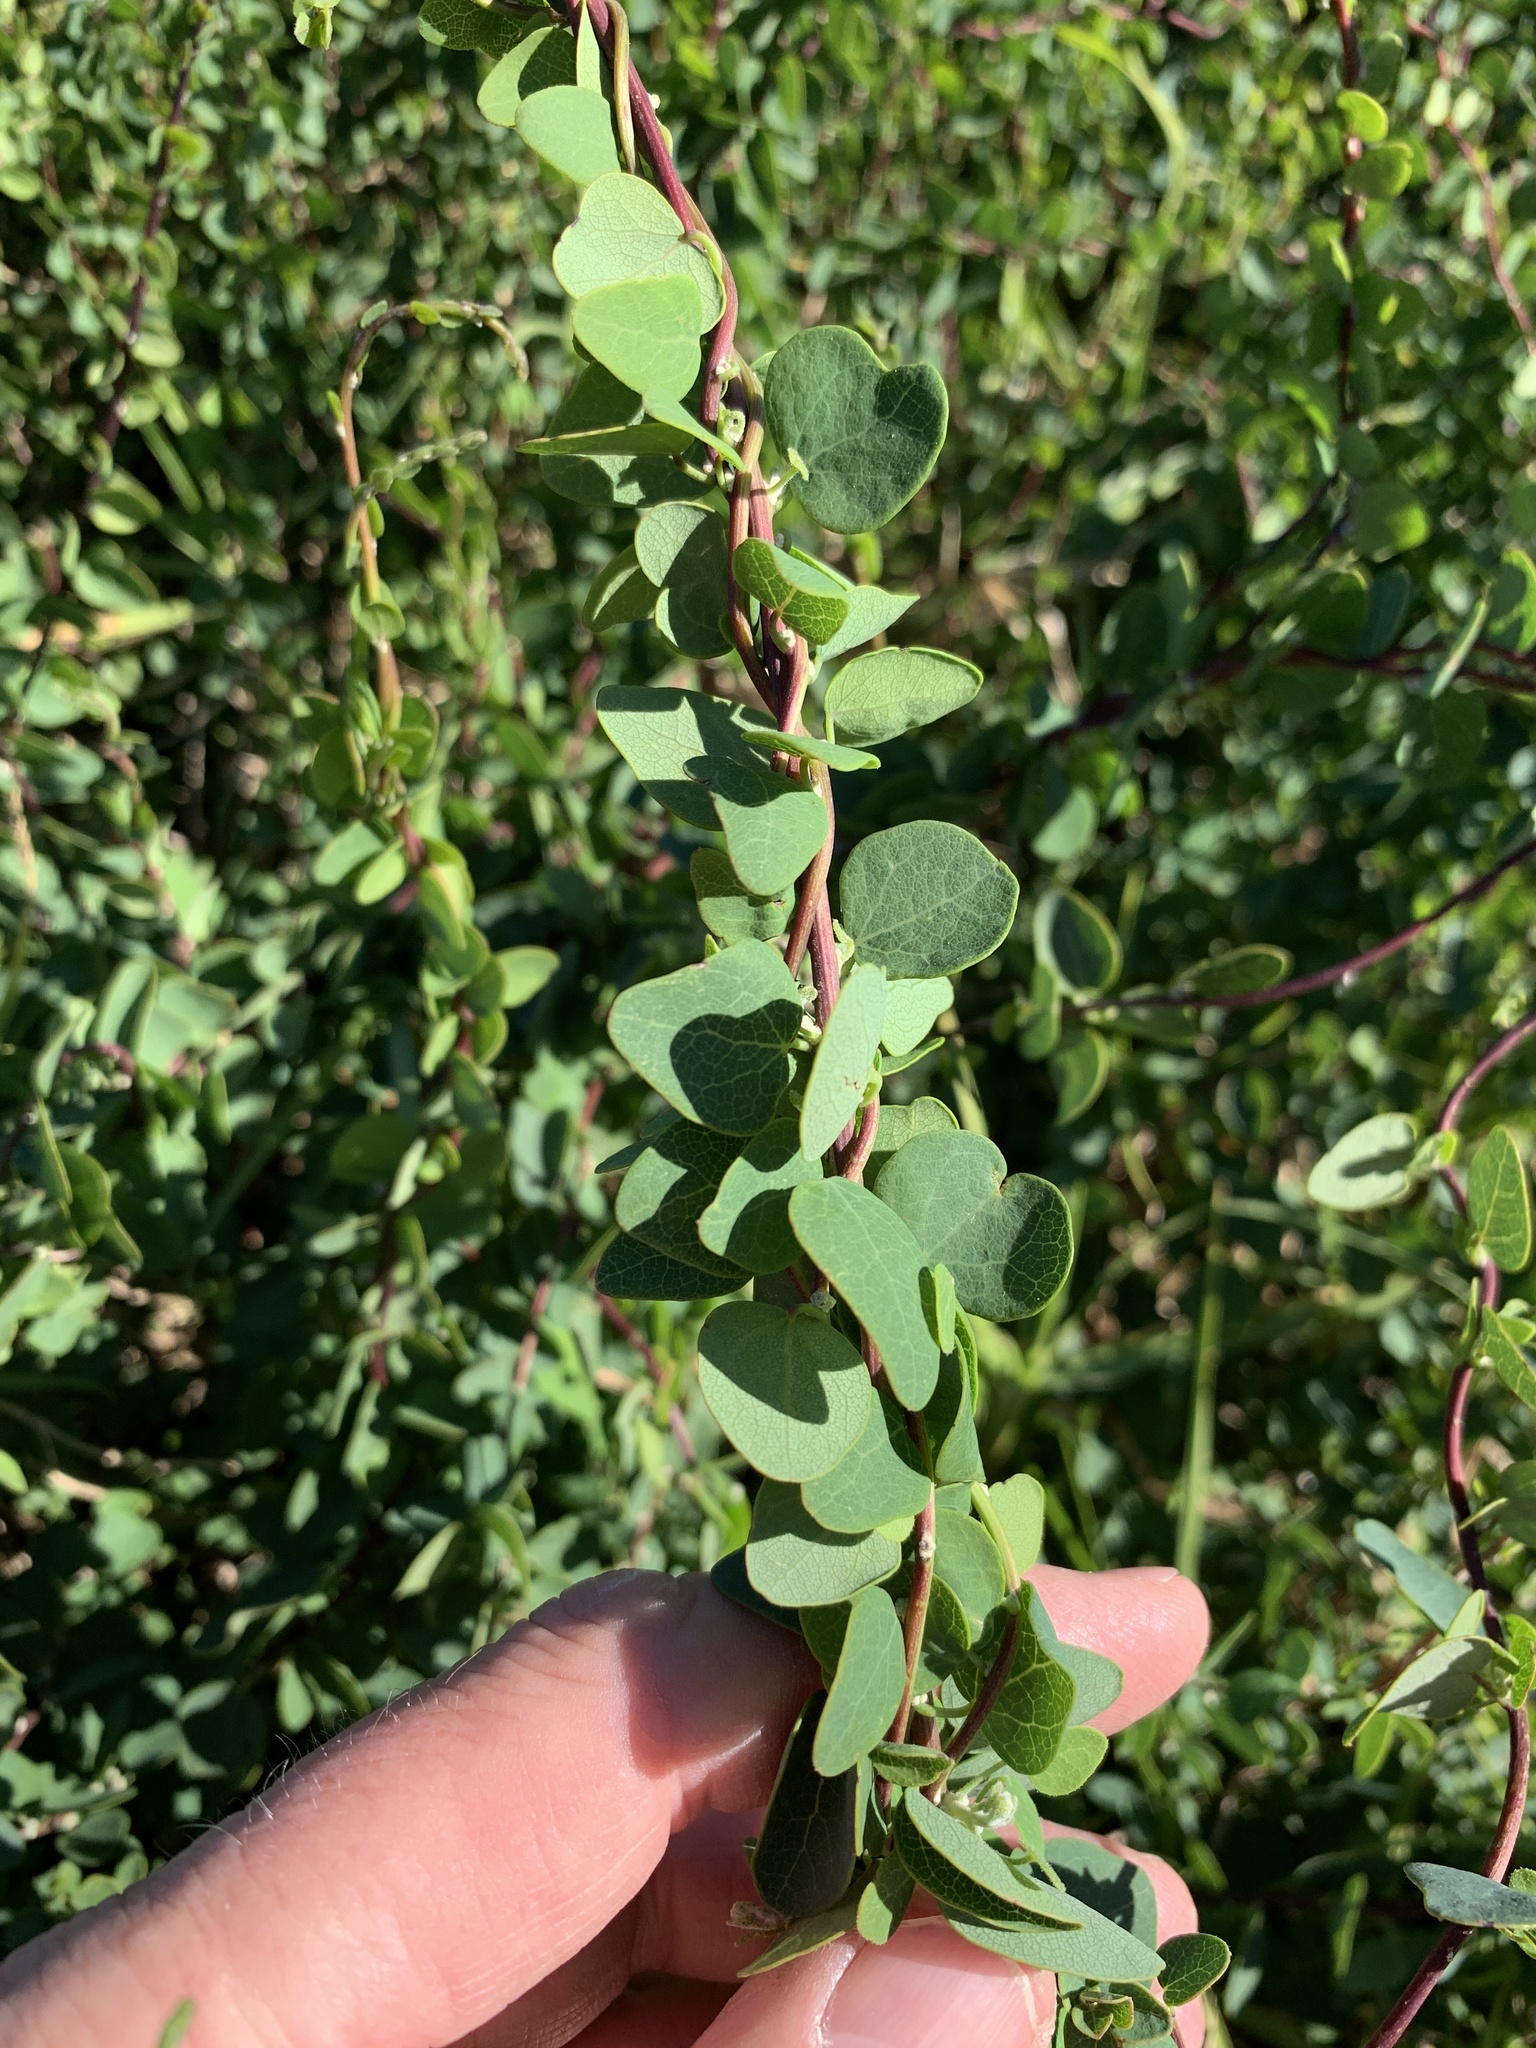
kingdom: Plantae
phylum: Tracheophyta
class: Magnoliopsida
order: Ranunculales
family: Menispermaceae
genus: Cissampelos
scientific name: Cissampelos capensis
